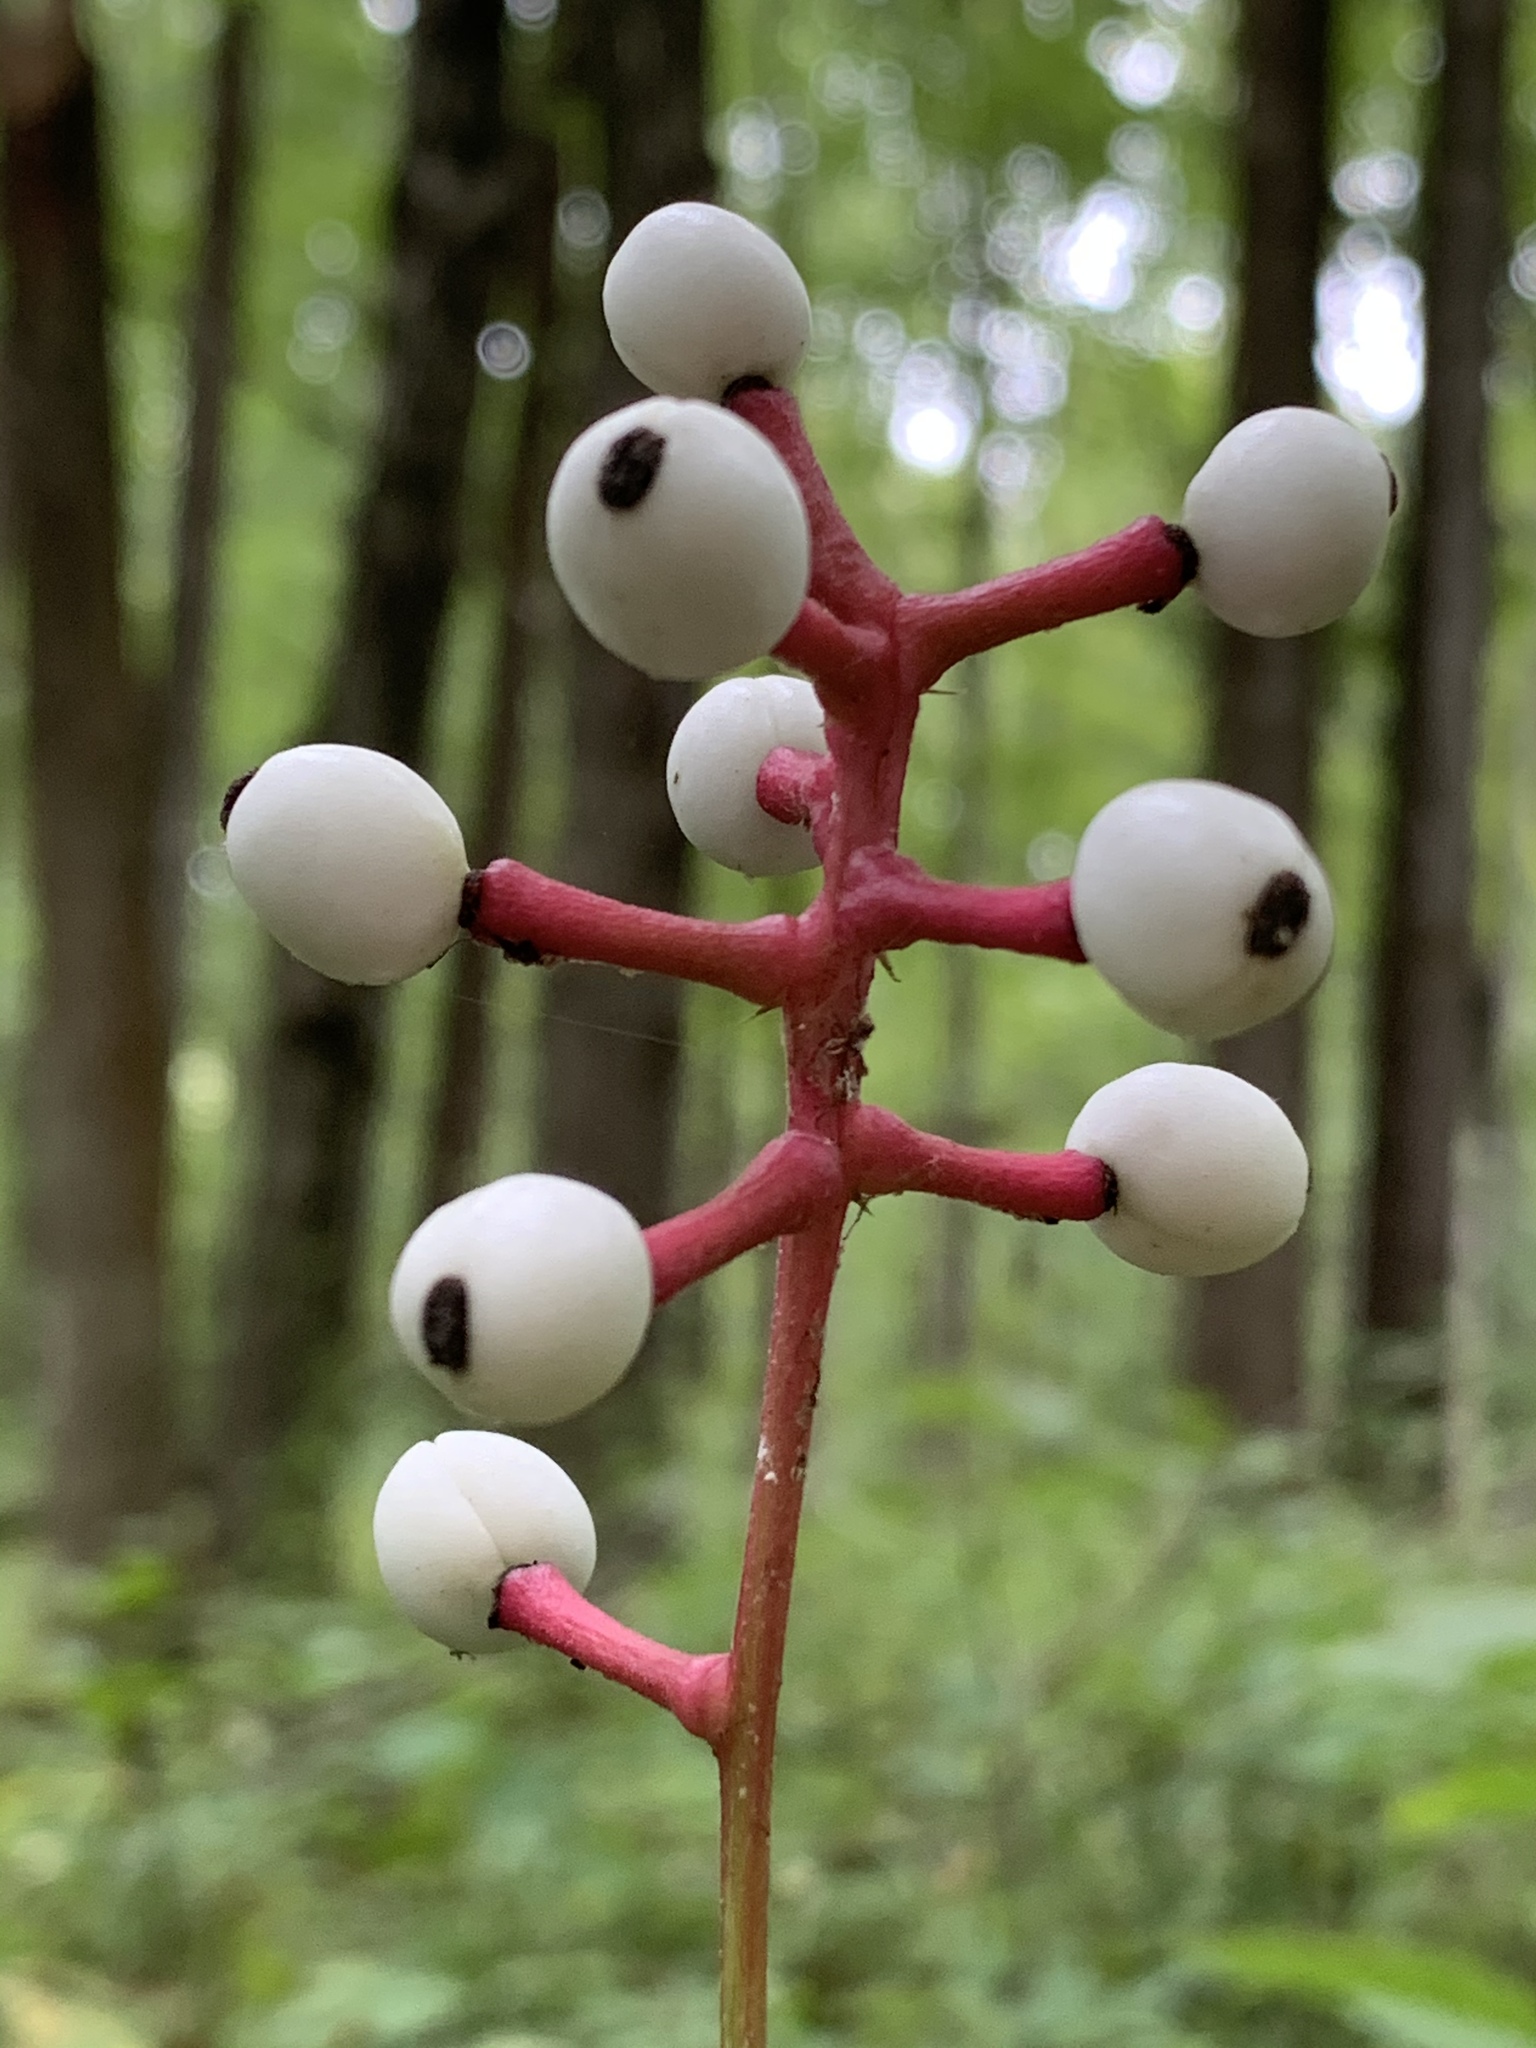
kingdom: Plantae
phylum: Tracheophyta
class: Magnoliopsida
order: Ranunculales
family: Ranunculaceae
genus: Actaea
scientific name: Actaea pachypoda
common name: Doll's-eyes
